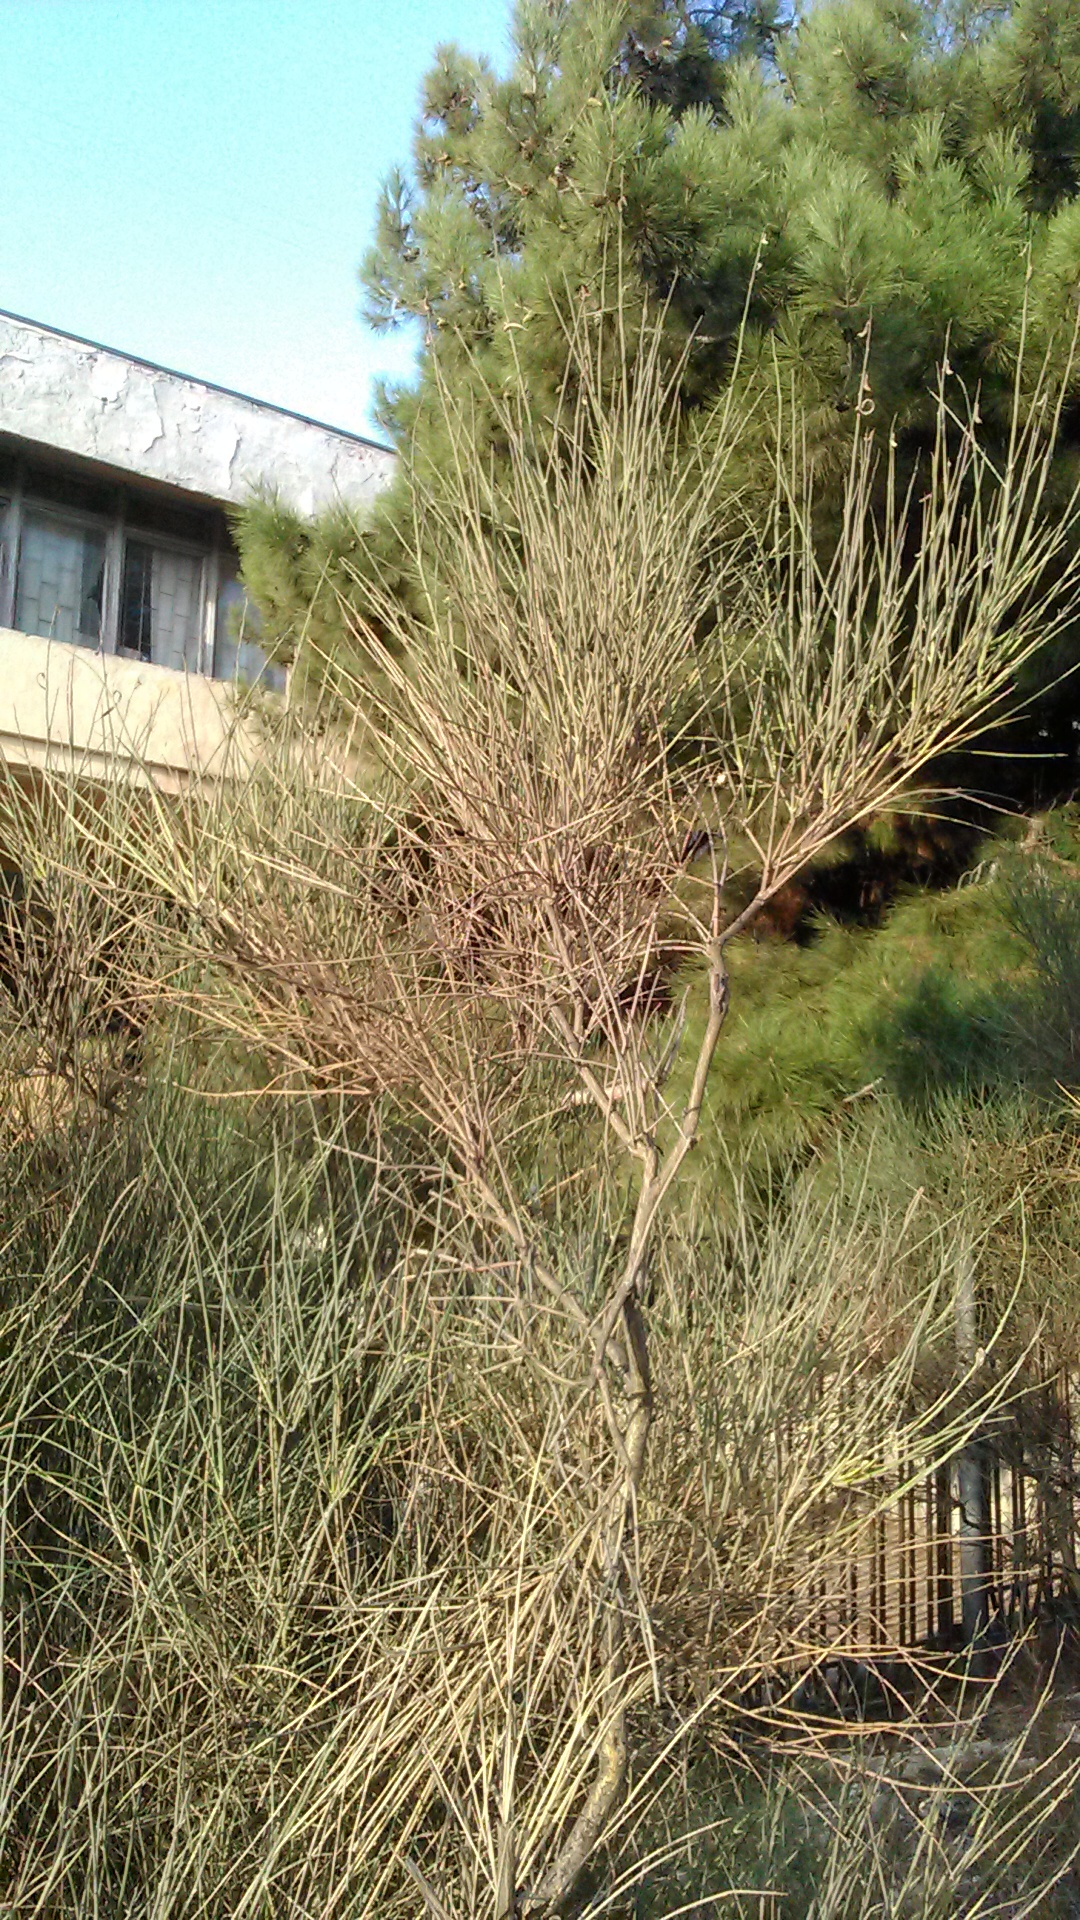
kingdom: Plantae
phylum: Tracheophyta
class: Magnoliopsida
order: Fabales
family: Fabaceae
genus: Spartium
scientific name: Spartium junceum
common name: Spanish broom
